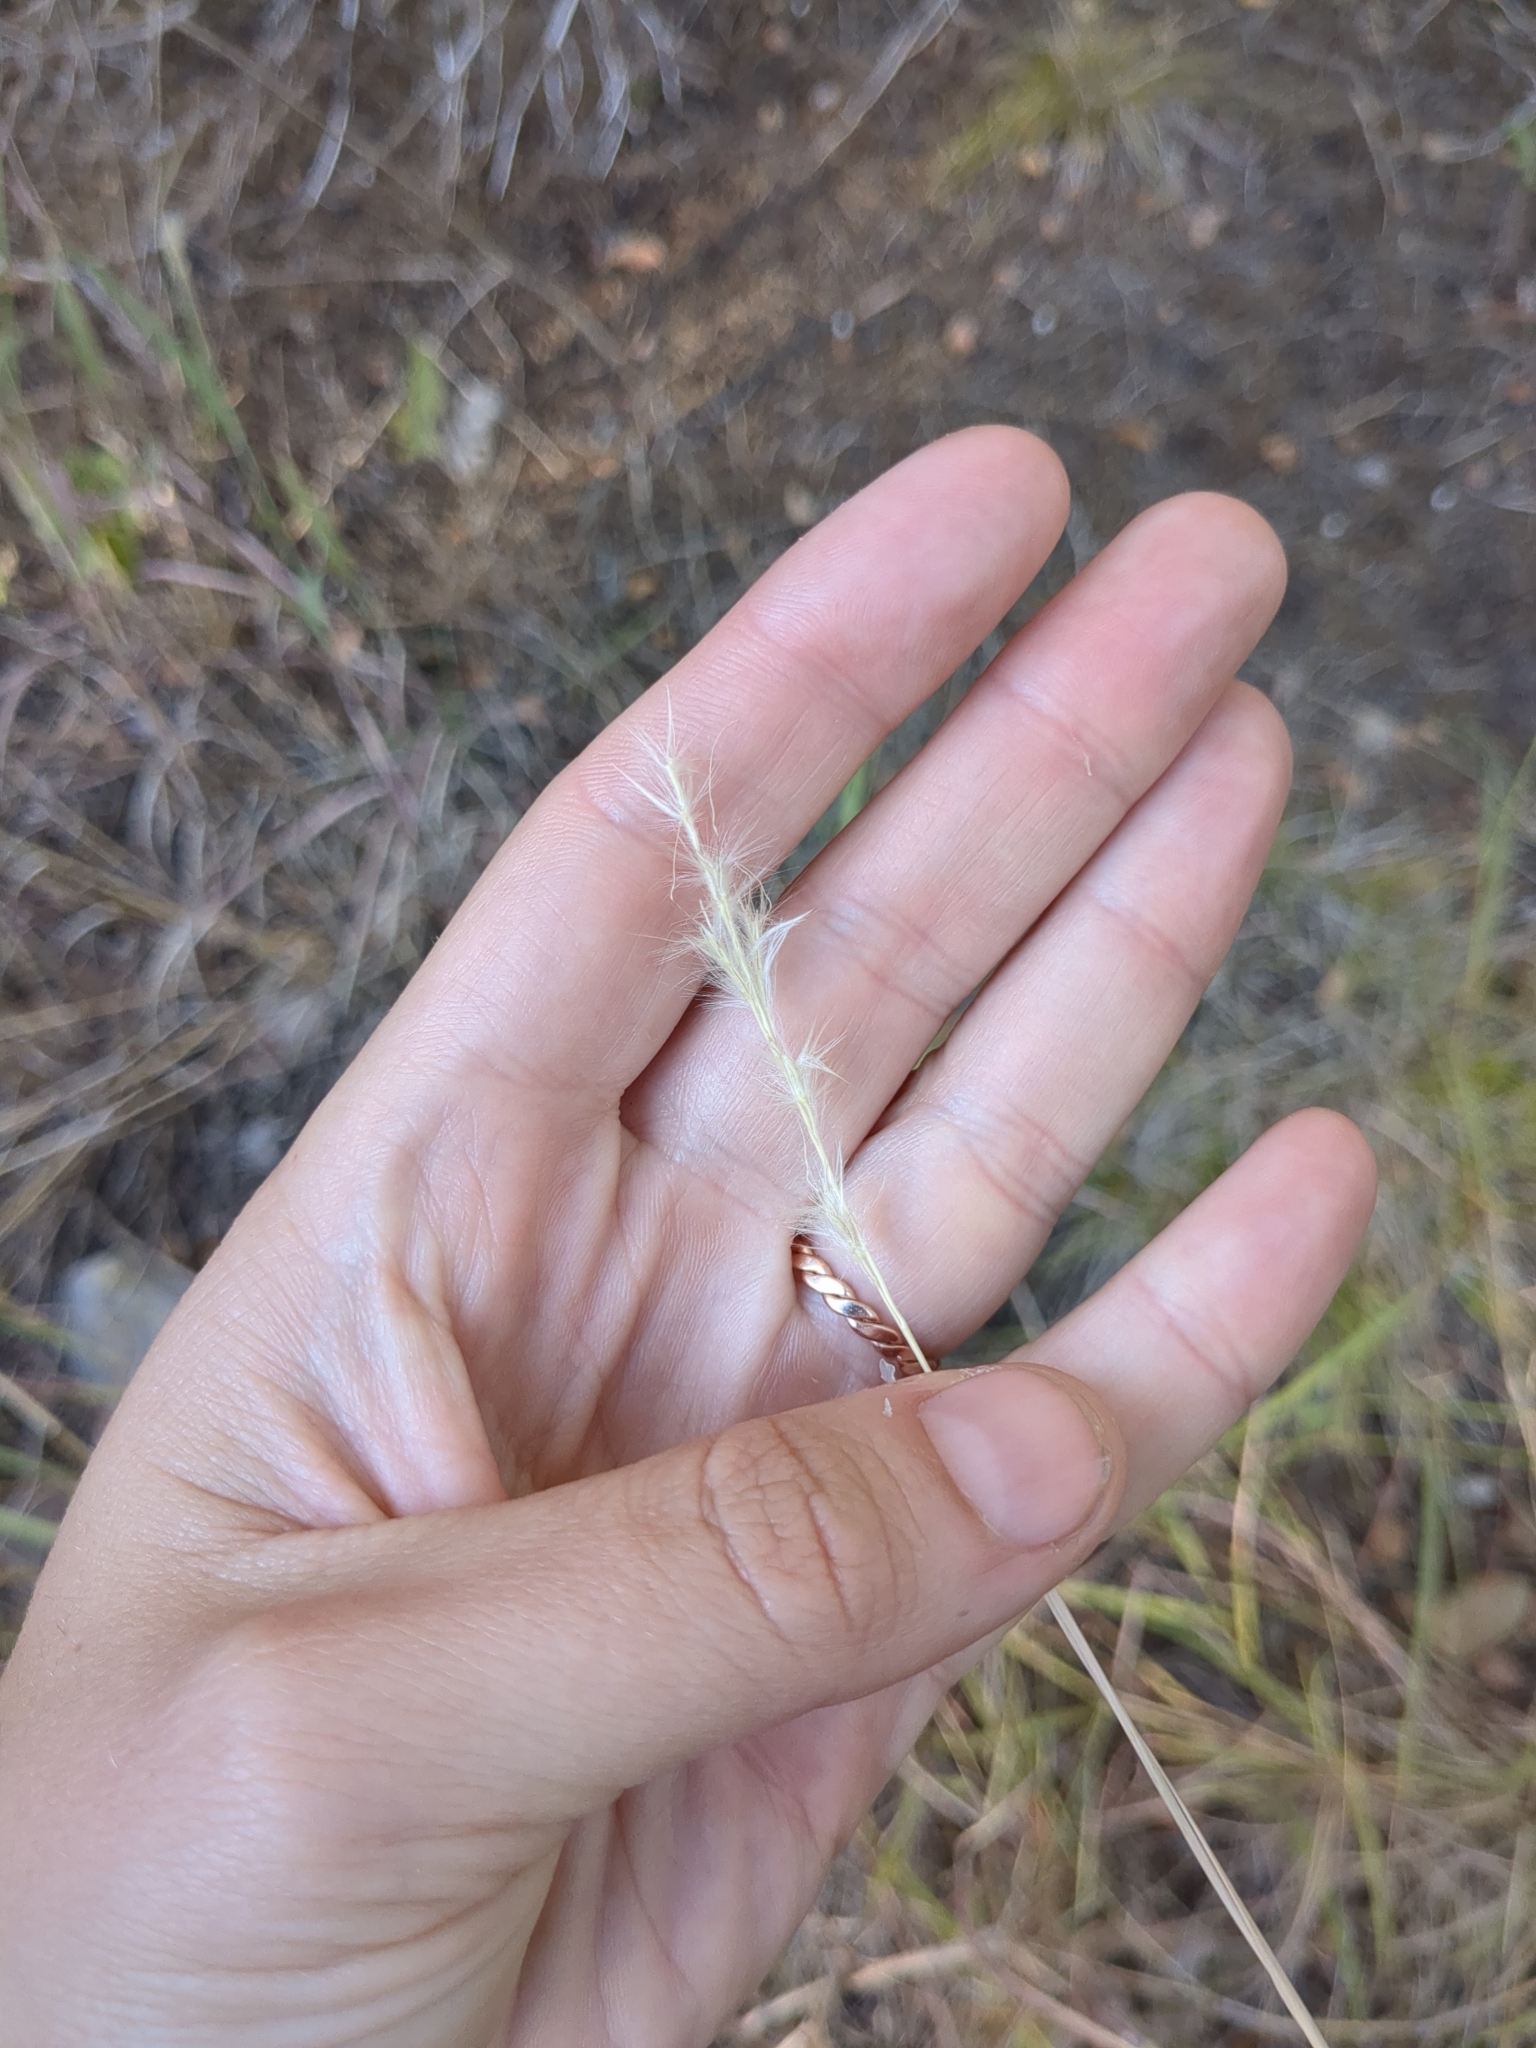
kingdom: Plantae
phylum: Tracheophyta
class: Liliopsida
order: Poales
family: Poaceae
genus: Bothriochloa
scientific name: Bothriochloa torreyana
